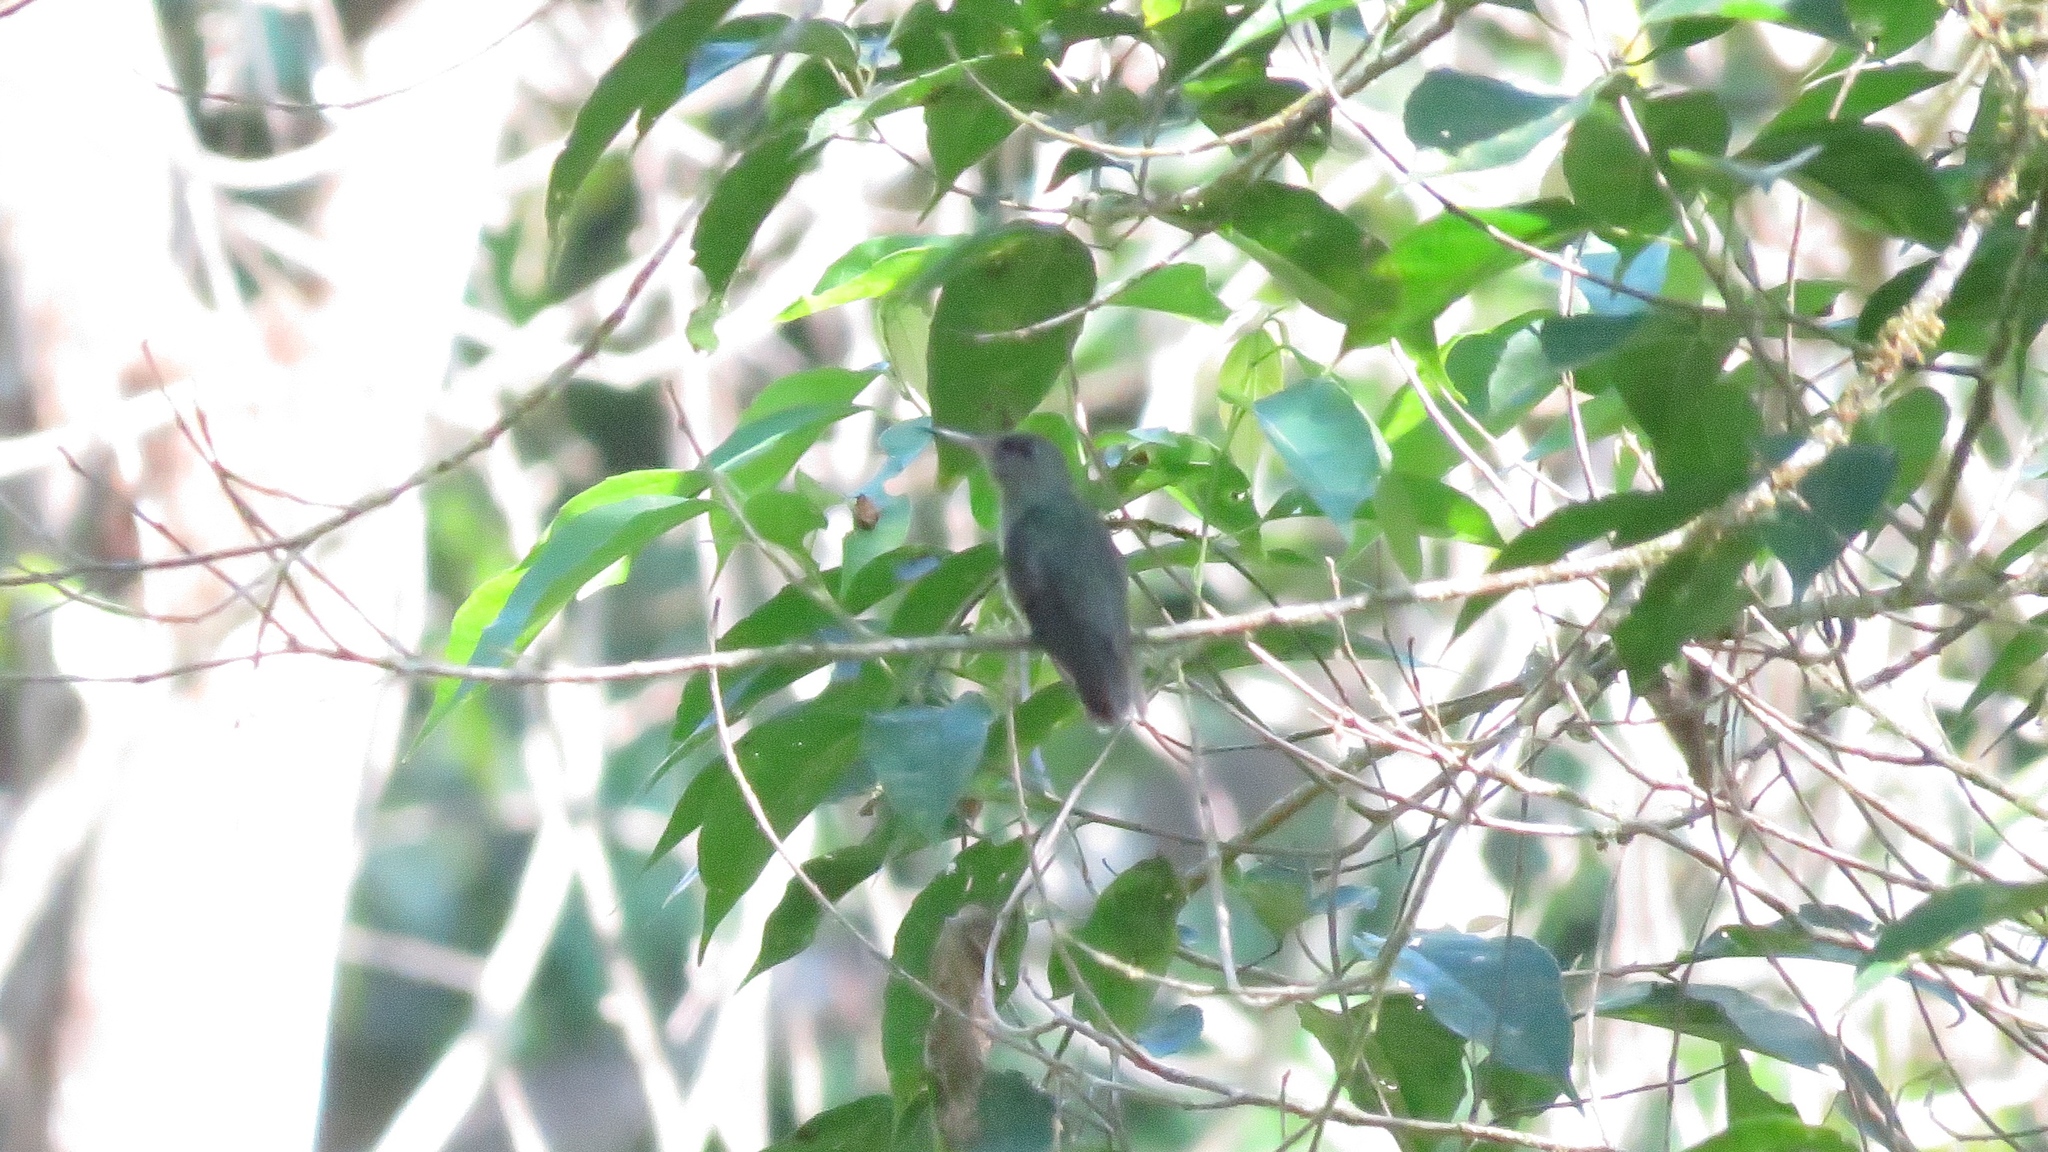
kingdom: Animalia
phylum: Chordata
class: Aves
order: Apodiformes
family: Trochilidae
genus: Phaeochroa
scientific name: Phaeochroa cuvierii
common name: Scaly-breasted hummingbird
